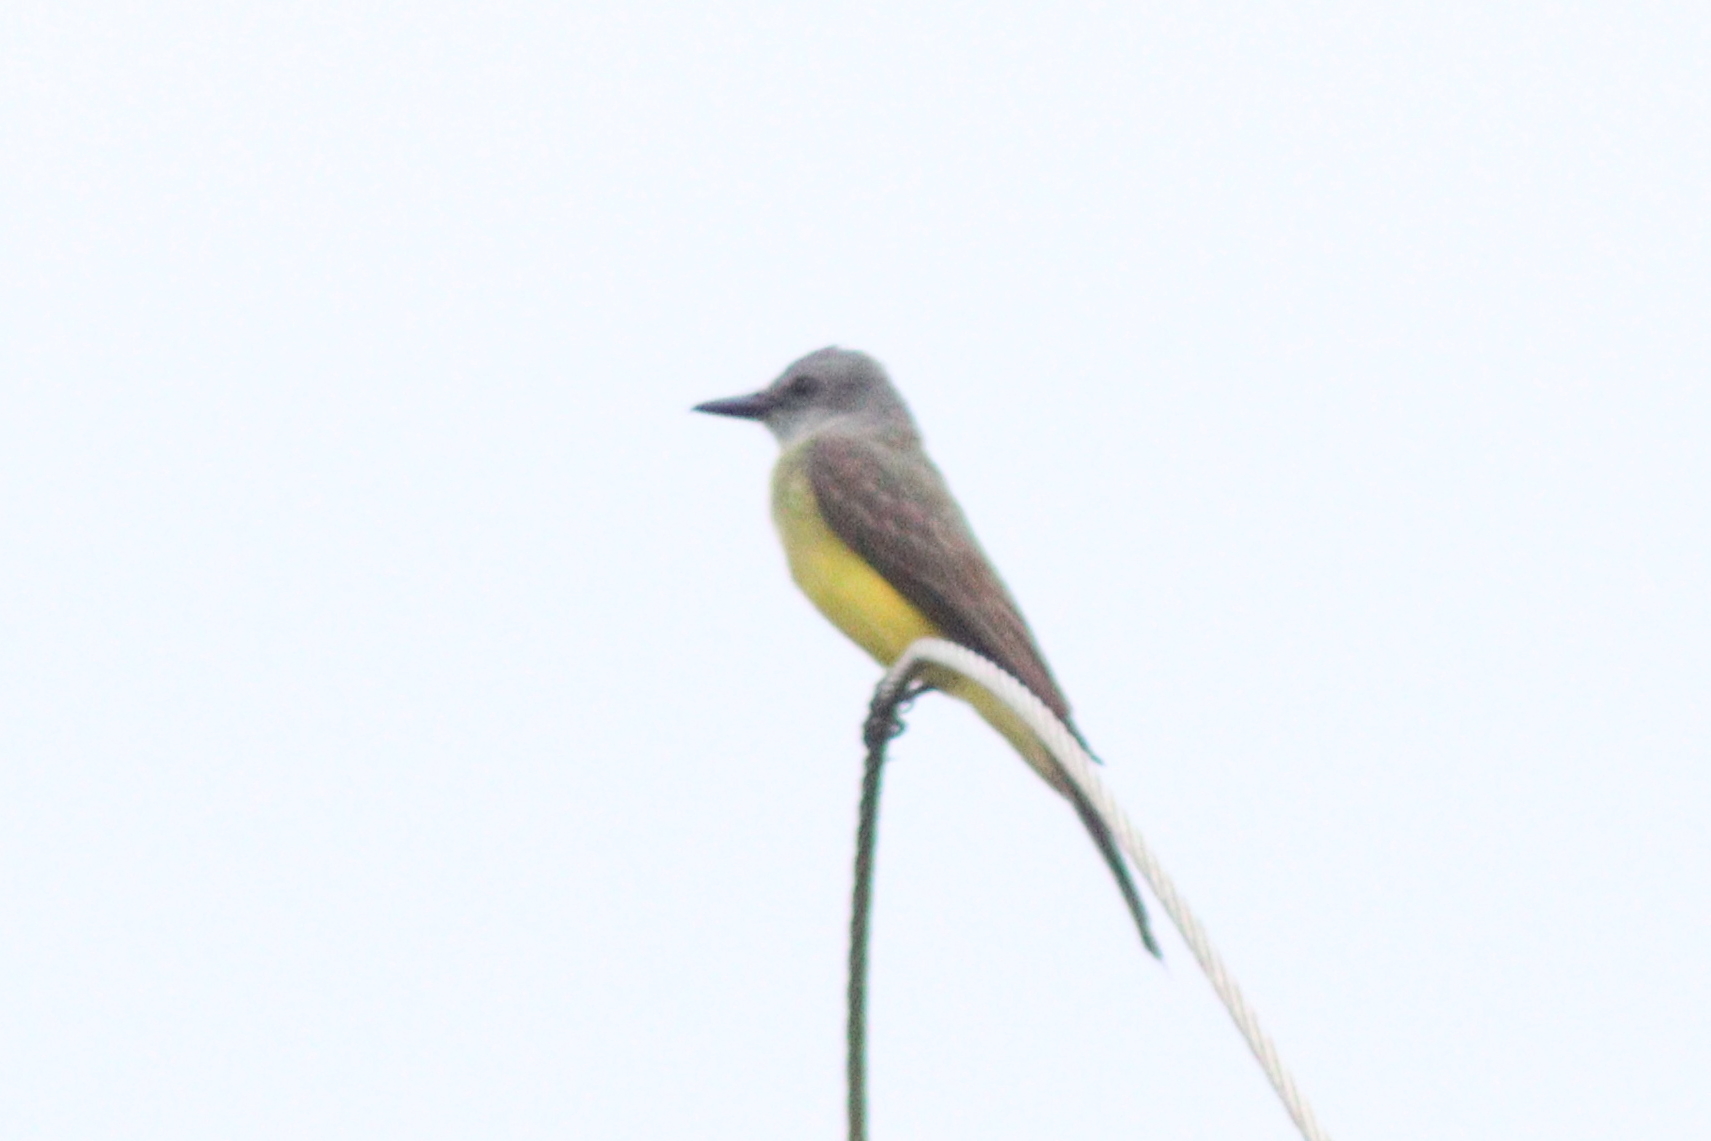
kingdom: Animalia
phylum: Chordata
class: Aves
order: Passeriformes
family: Tyrannidae
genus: Tyrannus
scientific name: Tyrannus melancholicus
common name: Tropical kingbird
